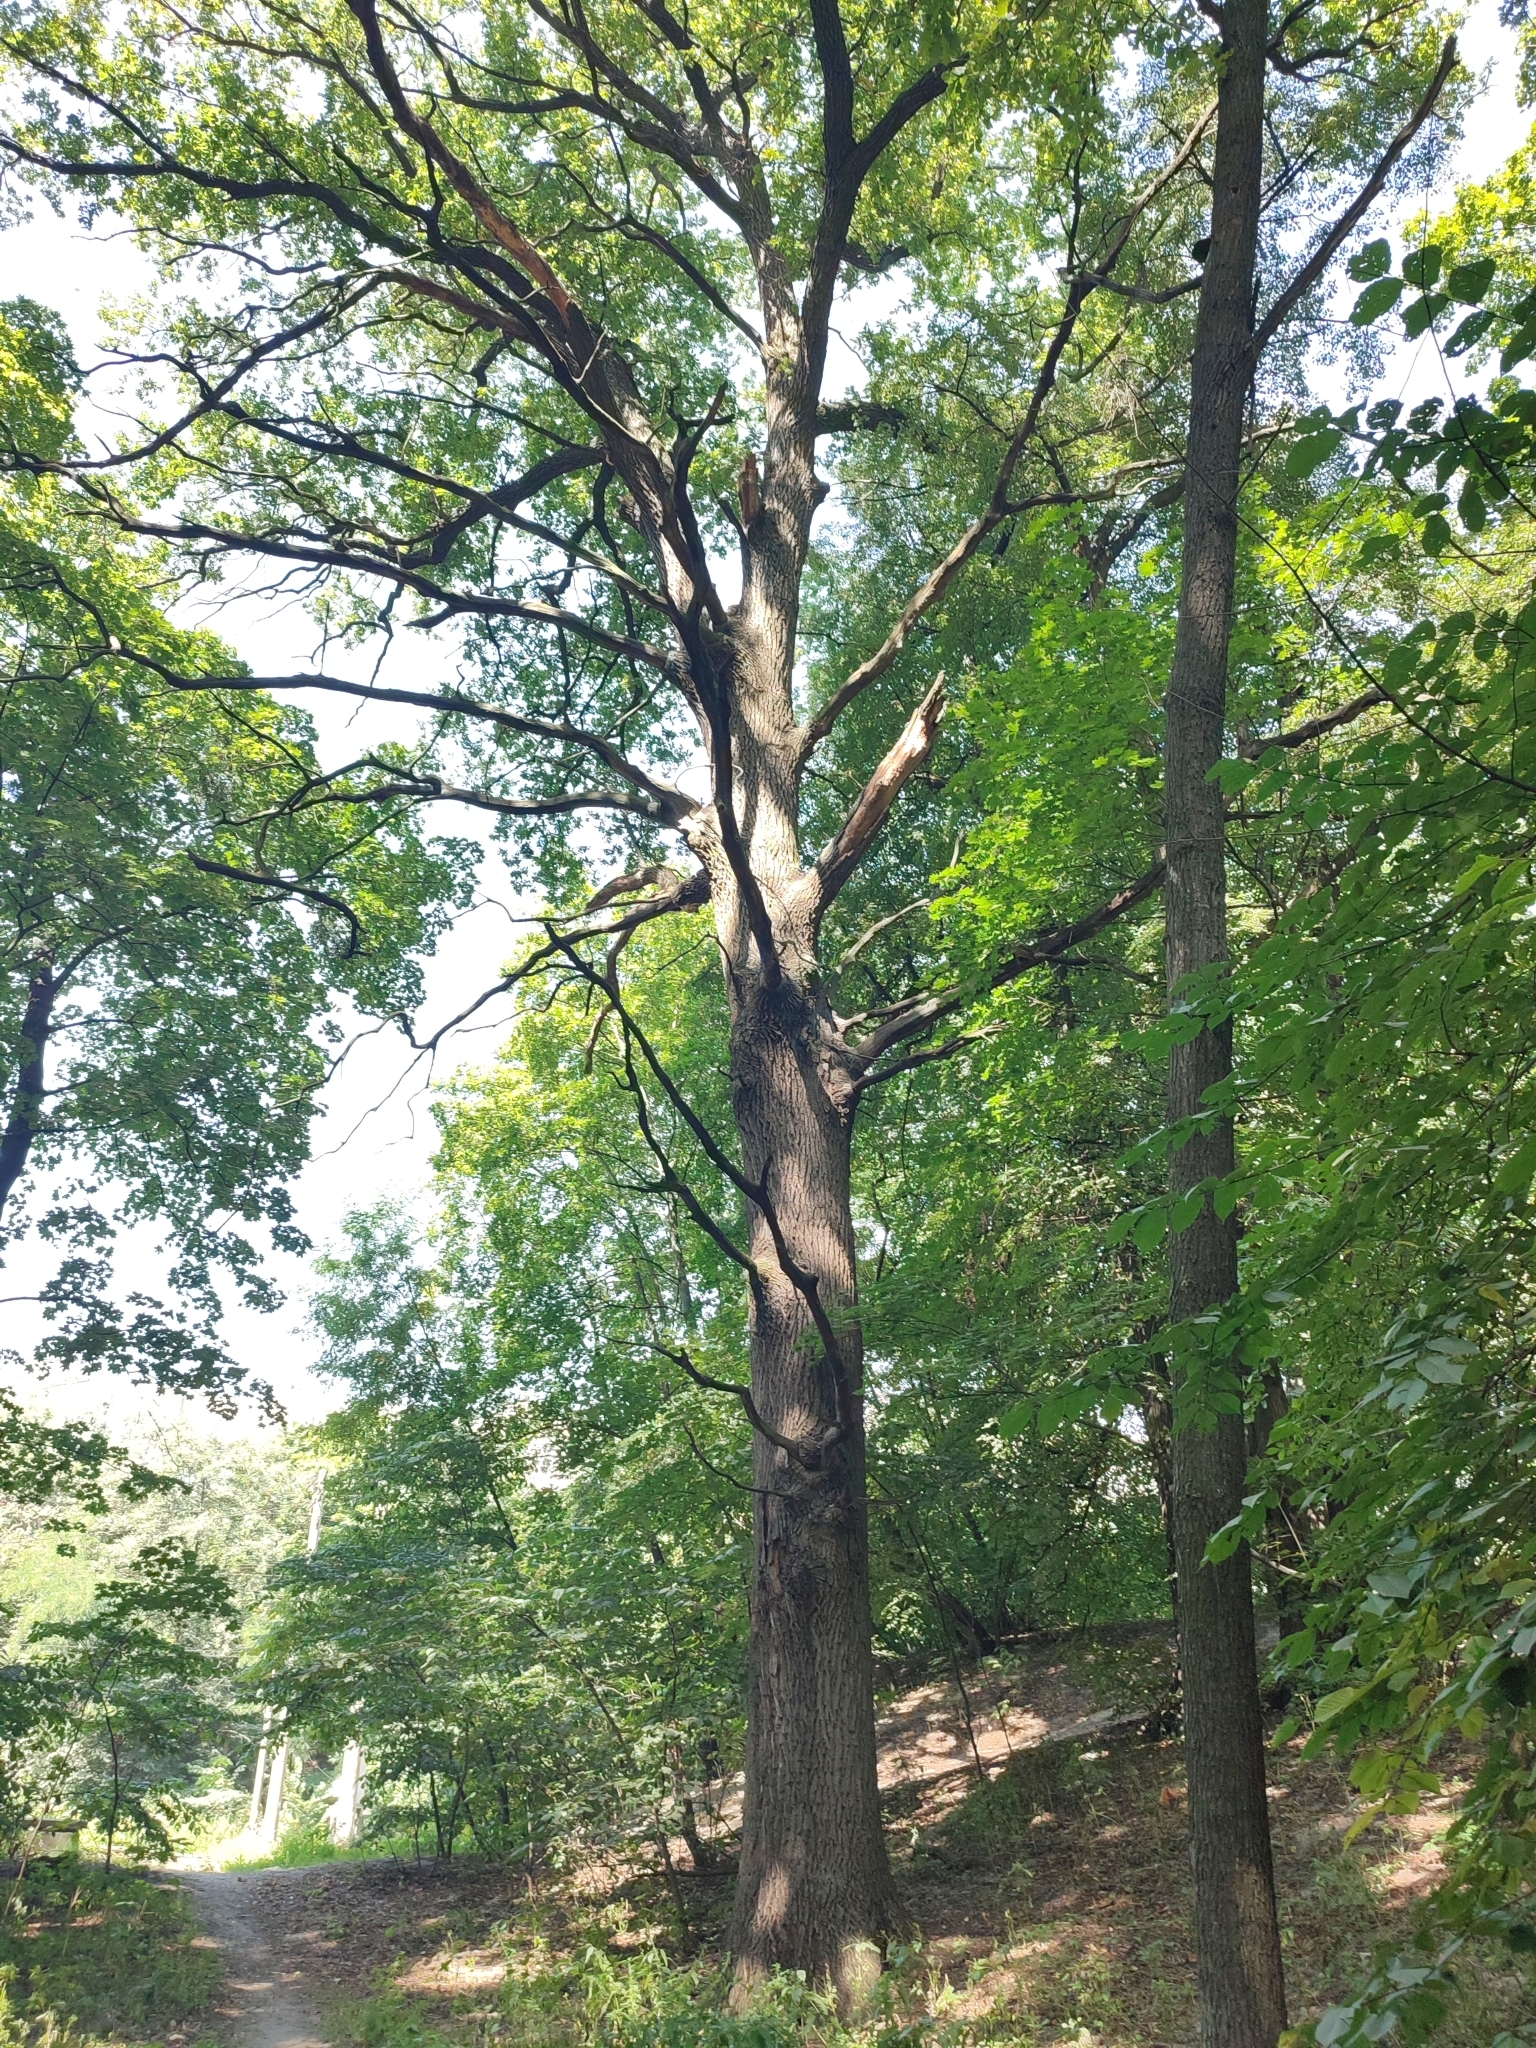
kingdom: Plantae
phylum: Tracheophyta
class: Magnoliopsida
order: Fagales
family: Fagaceae
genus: Quercus
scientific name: Quercus robur
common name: Pedunculate oak
